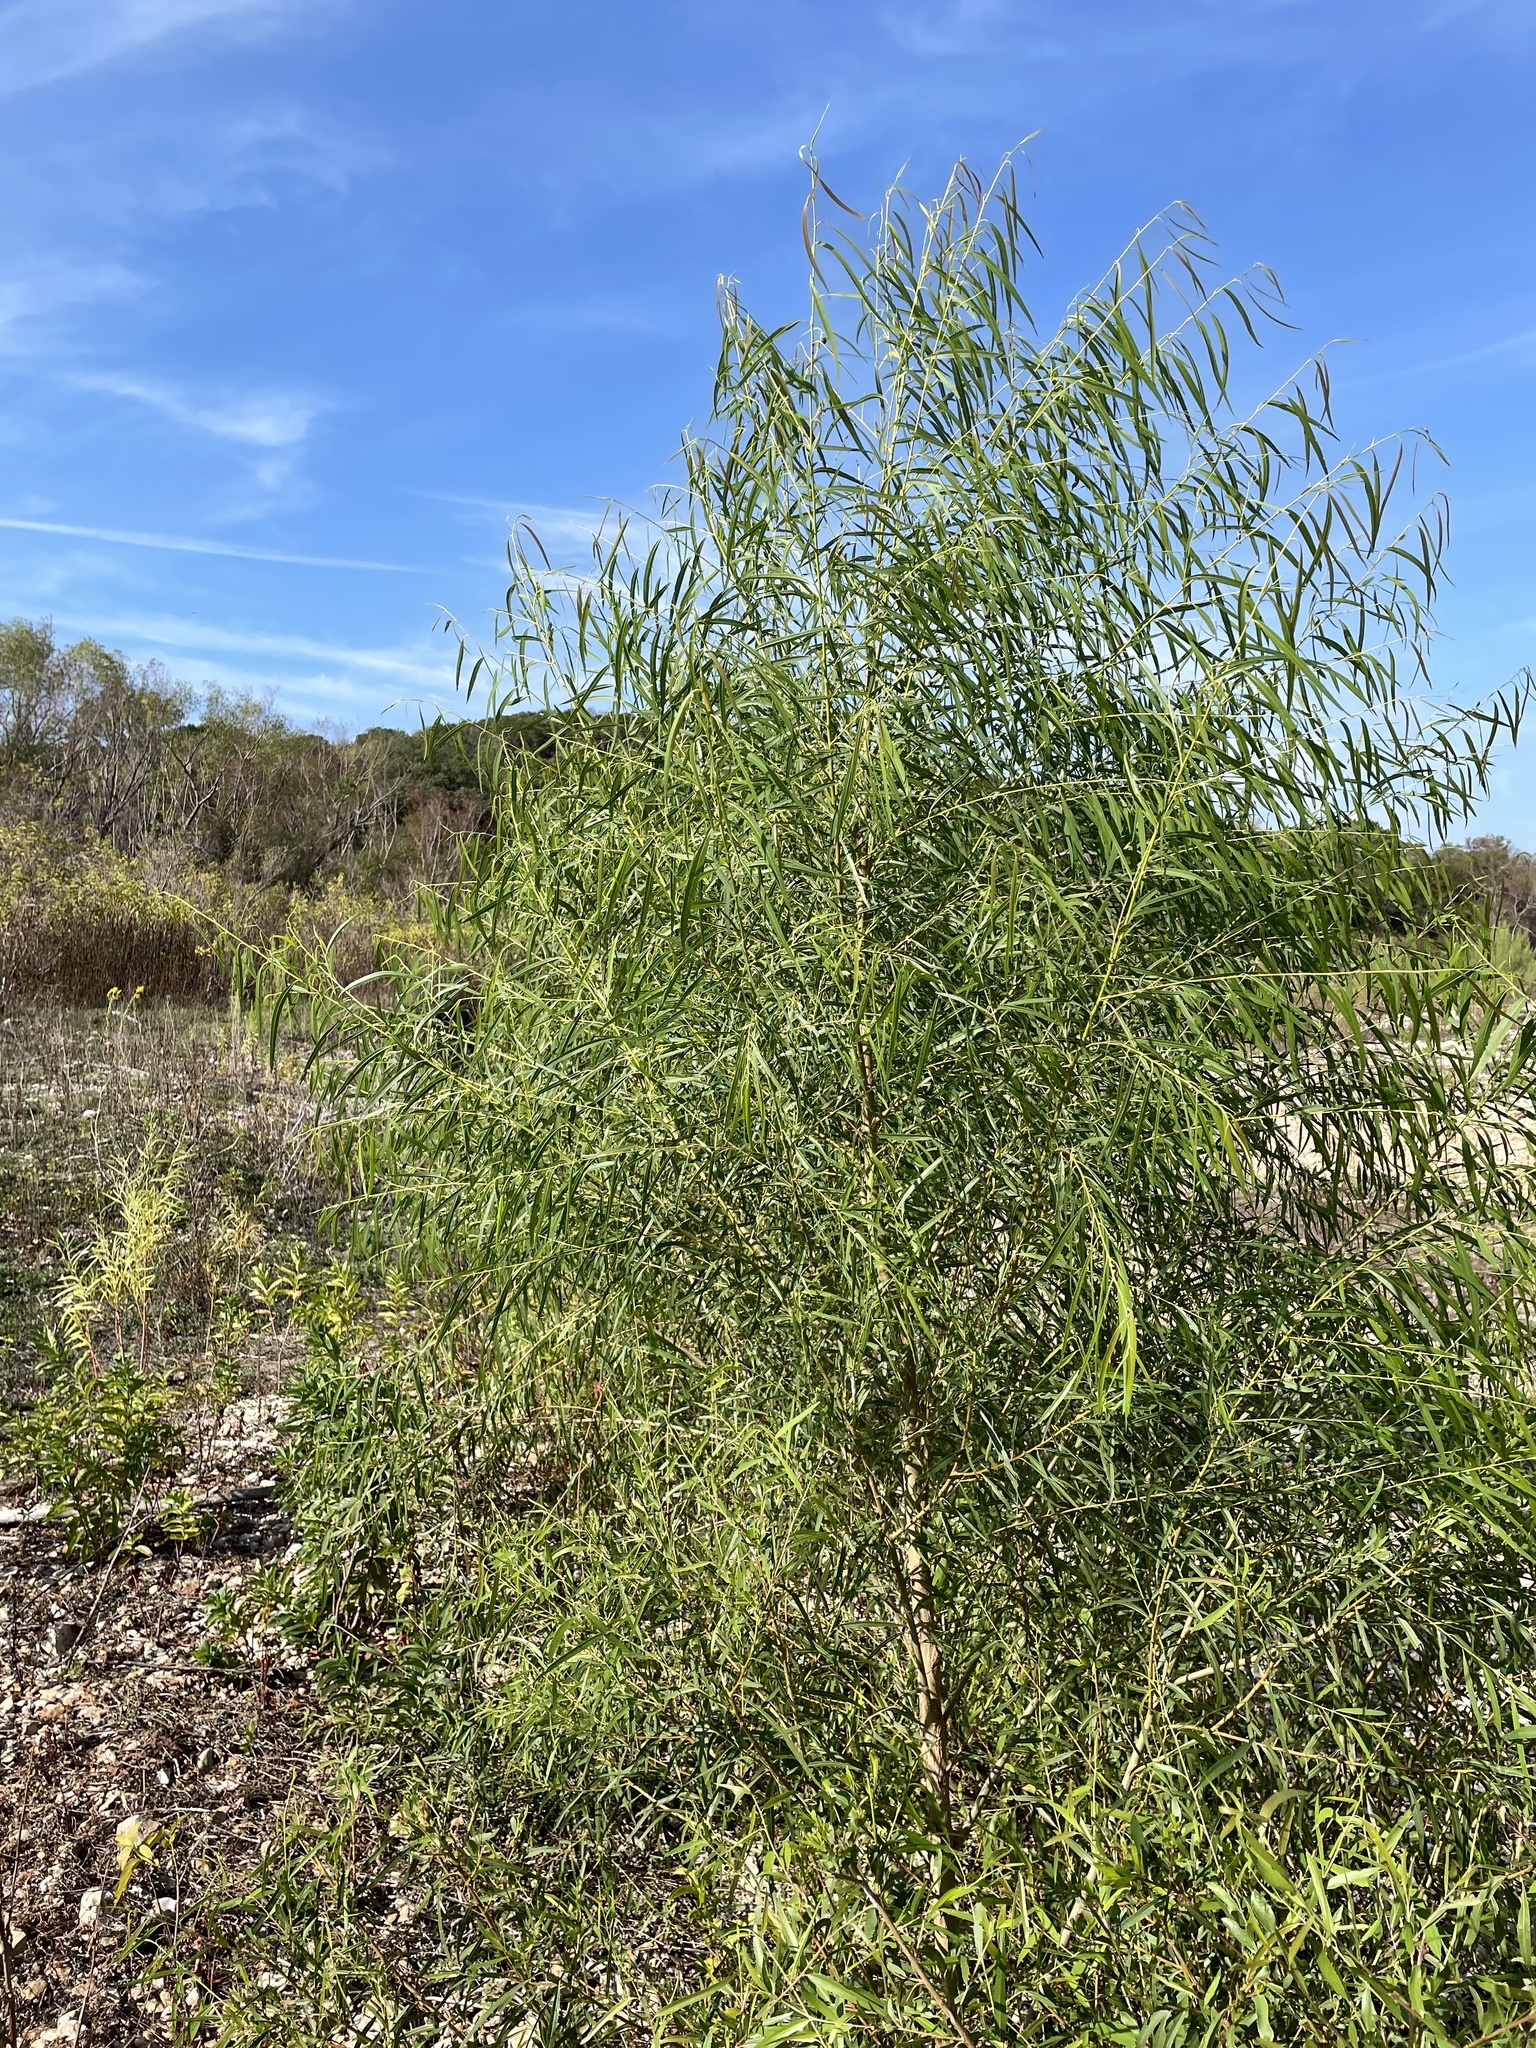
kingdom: Plantae
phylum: Tracheophyta
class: Magnoliopsida
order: Malpighiales
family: Salicaceae
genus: Salix
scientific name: Salix nigra
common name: Black willow
